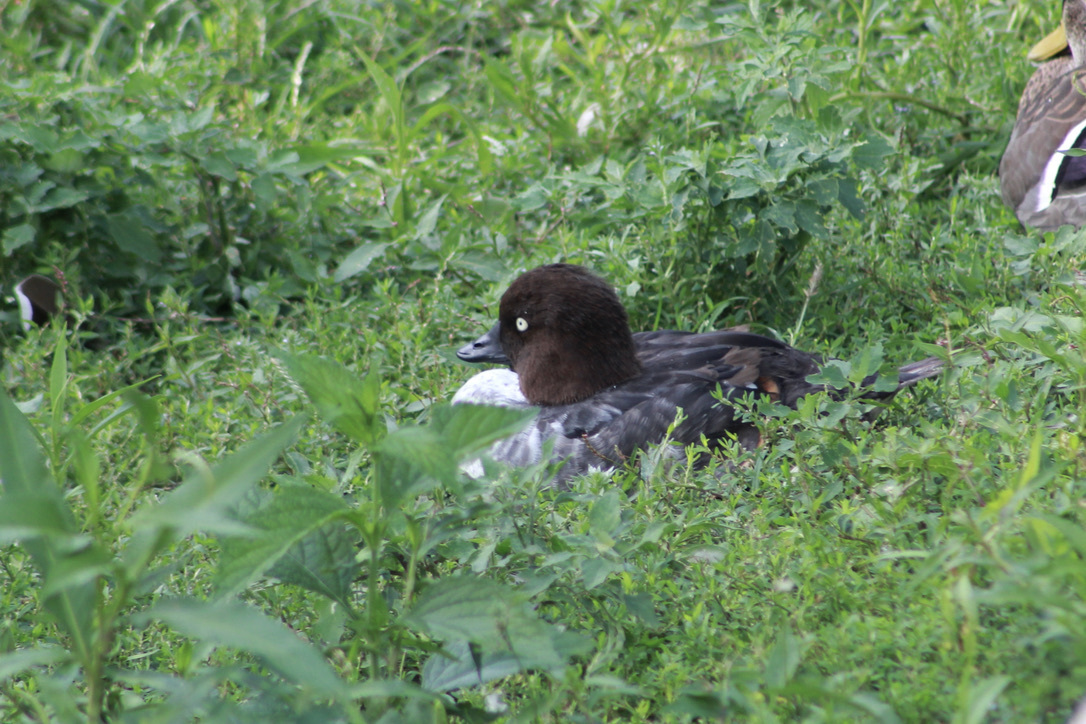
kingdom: Animalia
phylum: Chordata
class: Aves
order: Anseriformes
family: Anatidae
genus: Bucephala
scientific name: Bucephala clangula
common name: Common goldeneye
